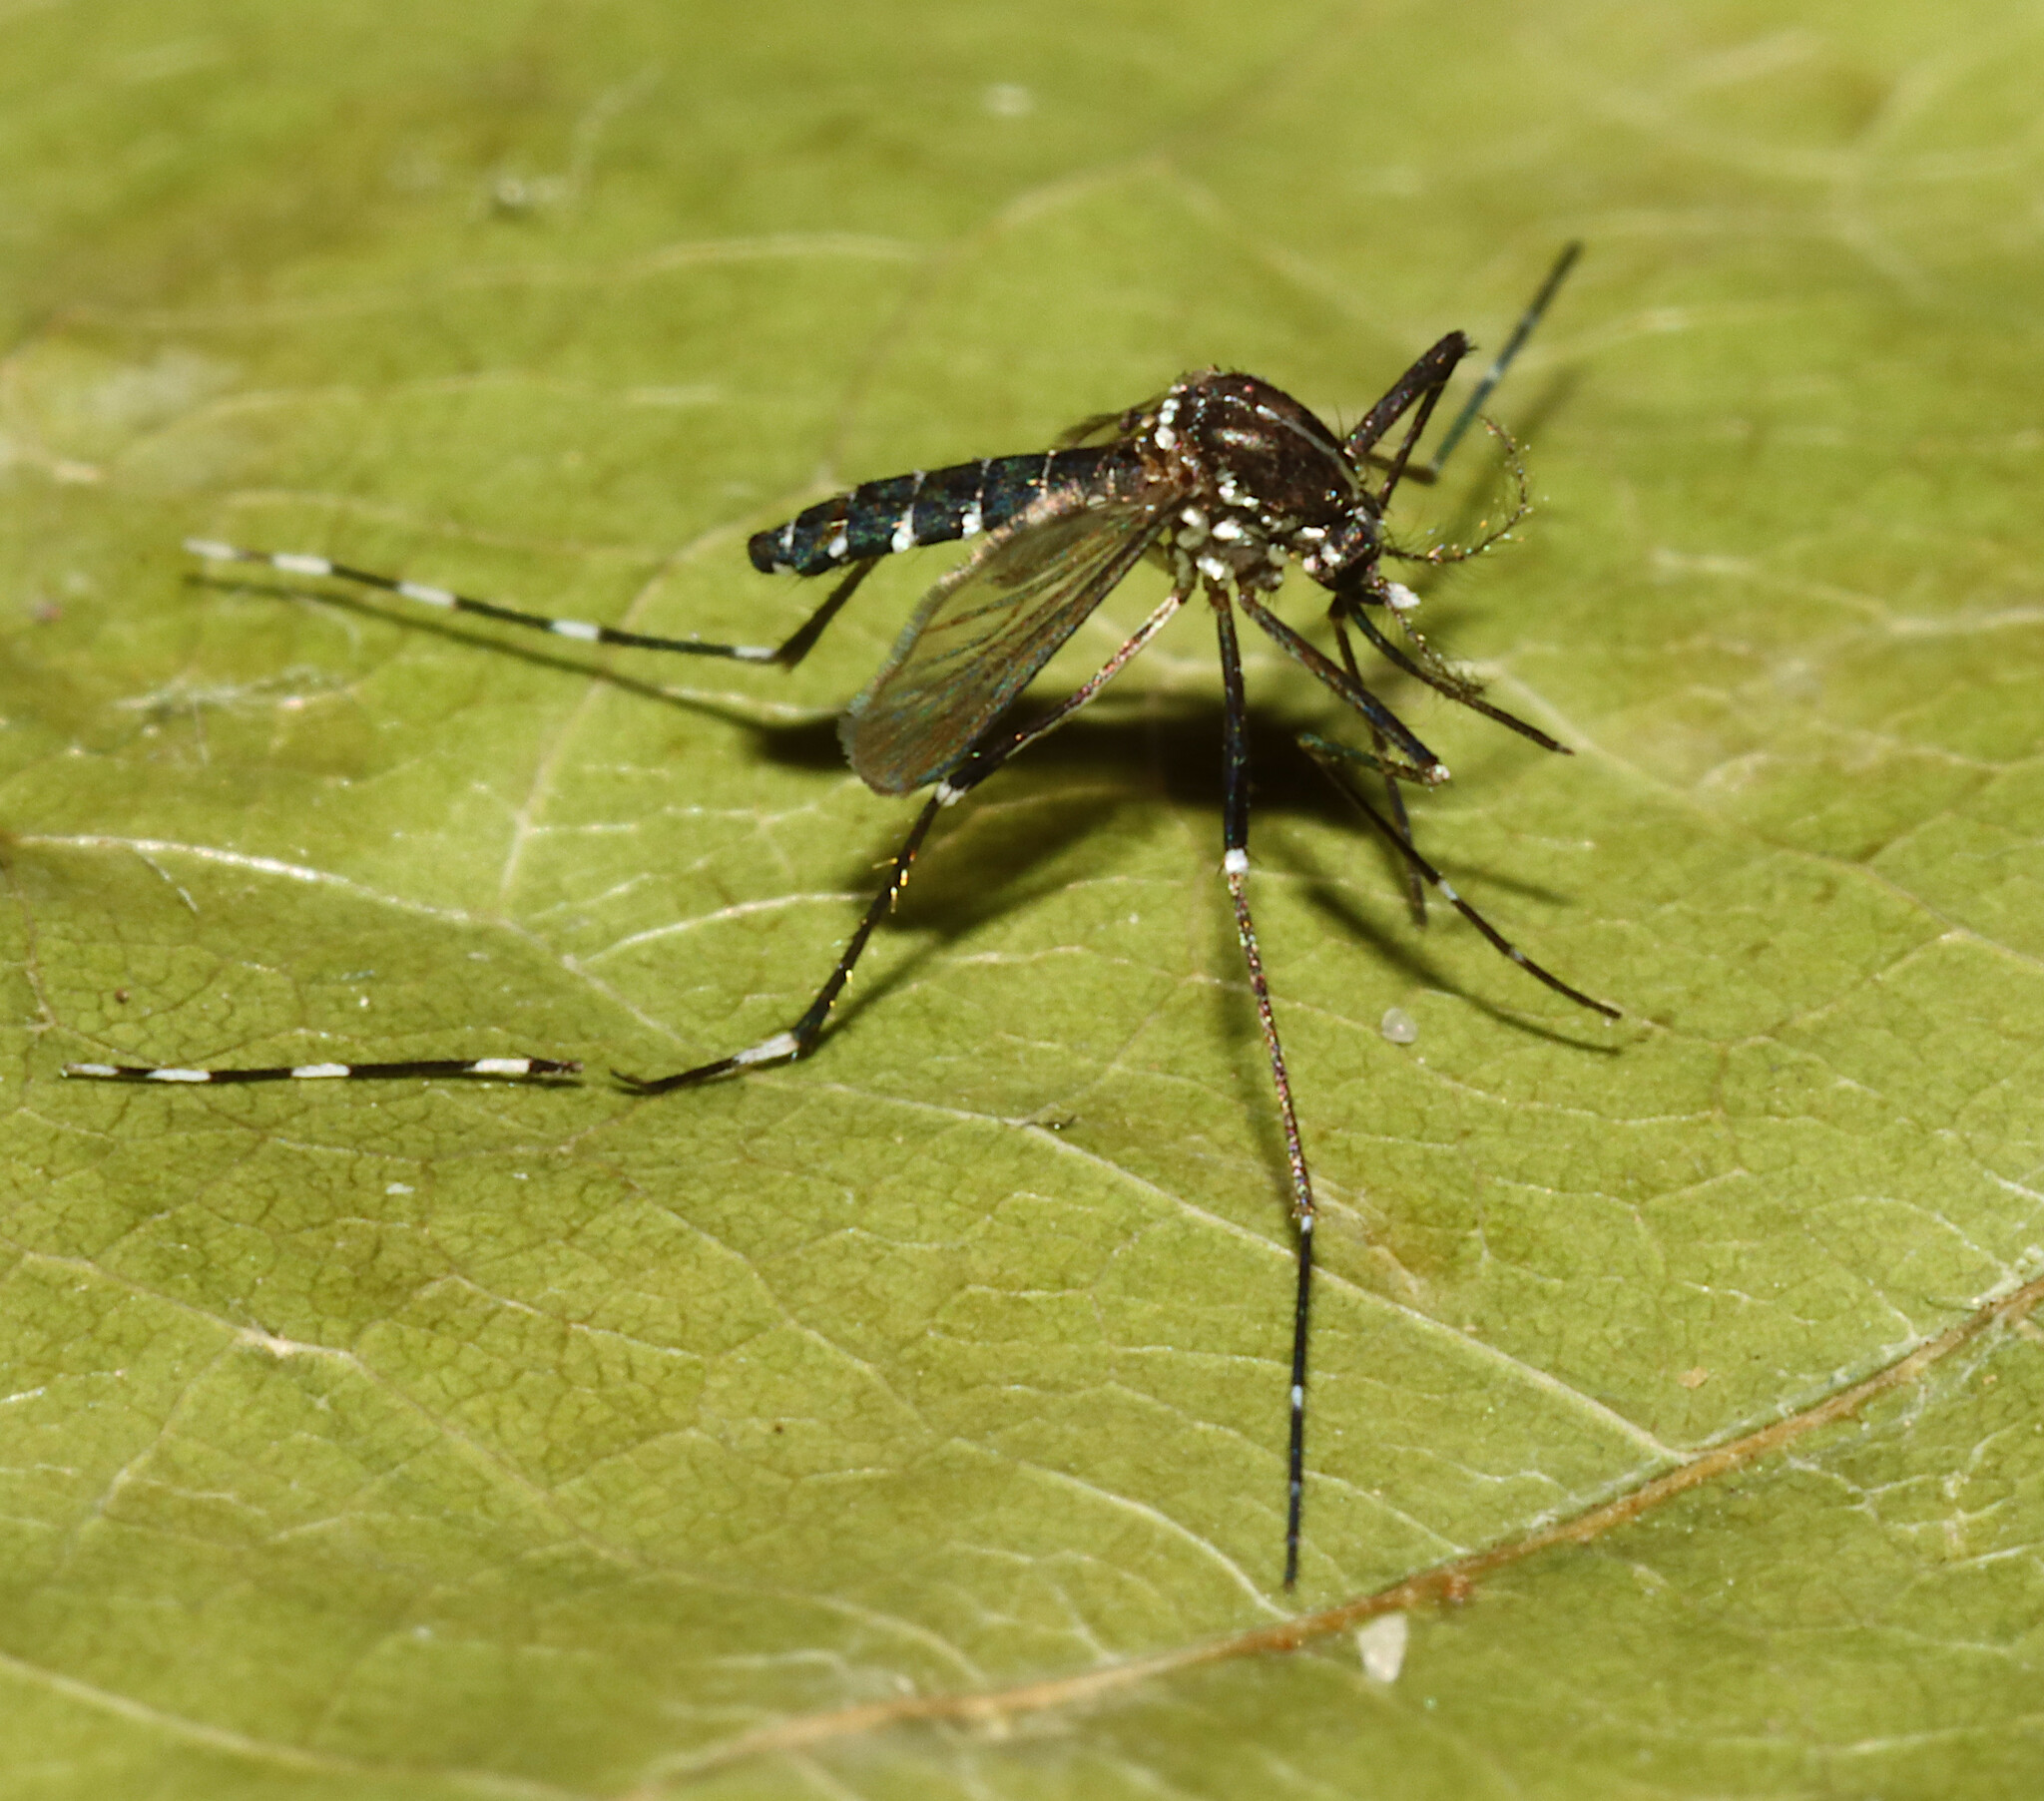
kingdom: Animalia
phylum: Arthropoda
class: Insecta
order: Diptera
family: Culicidae
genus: Aedes
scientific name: Aedes albopictus
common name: Tiger mosquito
